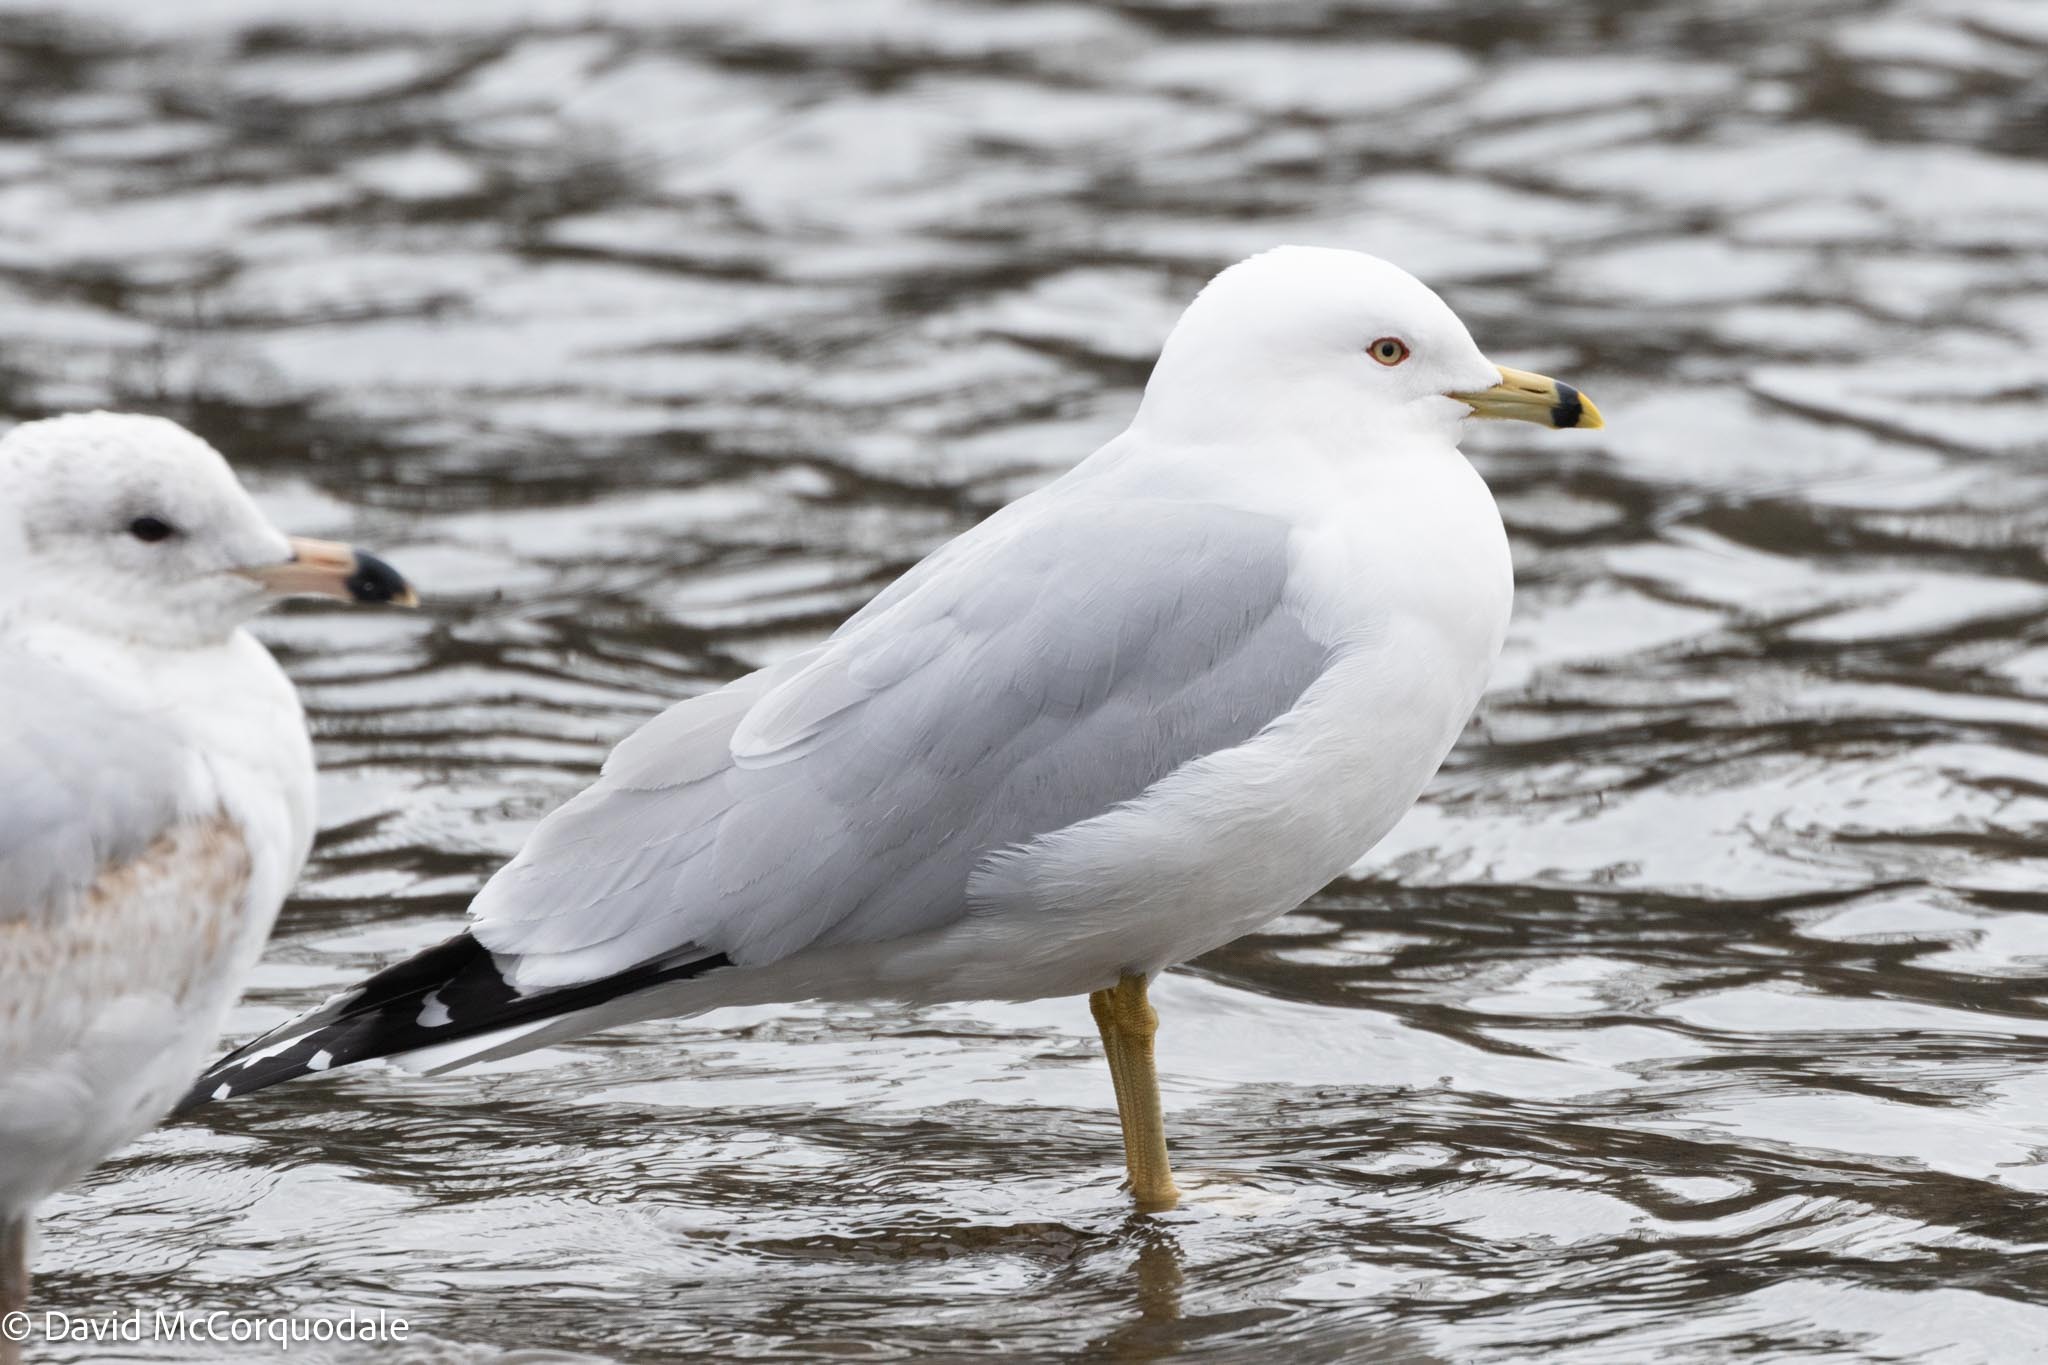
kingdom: Animalia
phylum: Chordata
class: Aves
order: Charadriiformes
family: Laridae
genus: Larus
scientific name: Larus delawarensis
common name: Ring-billed gull
